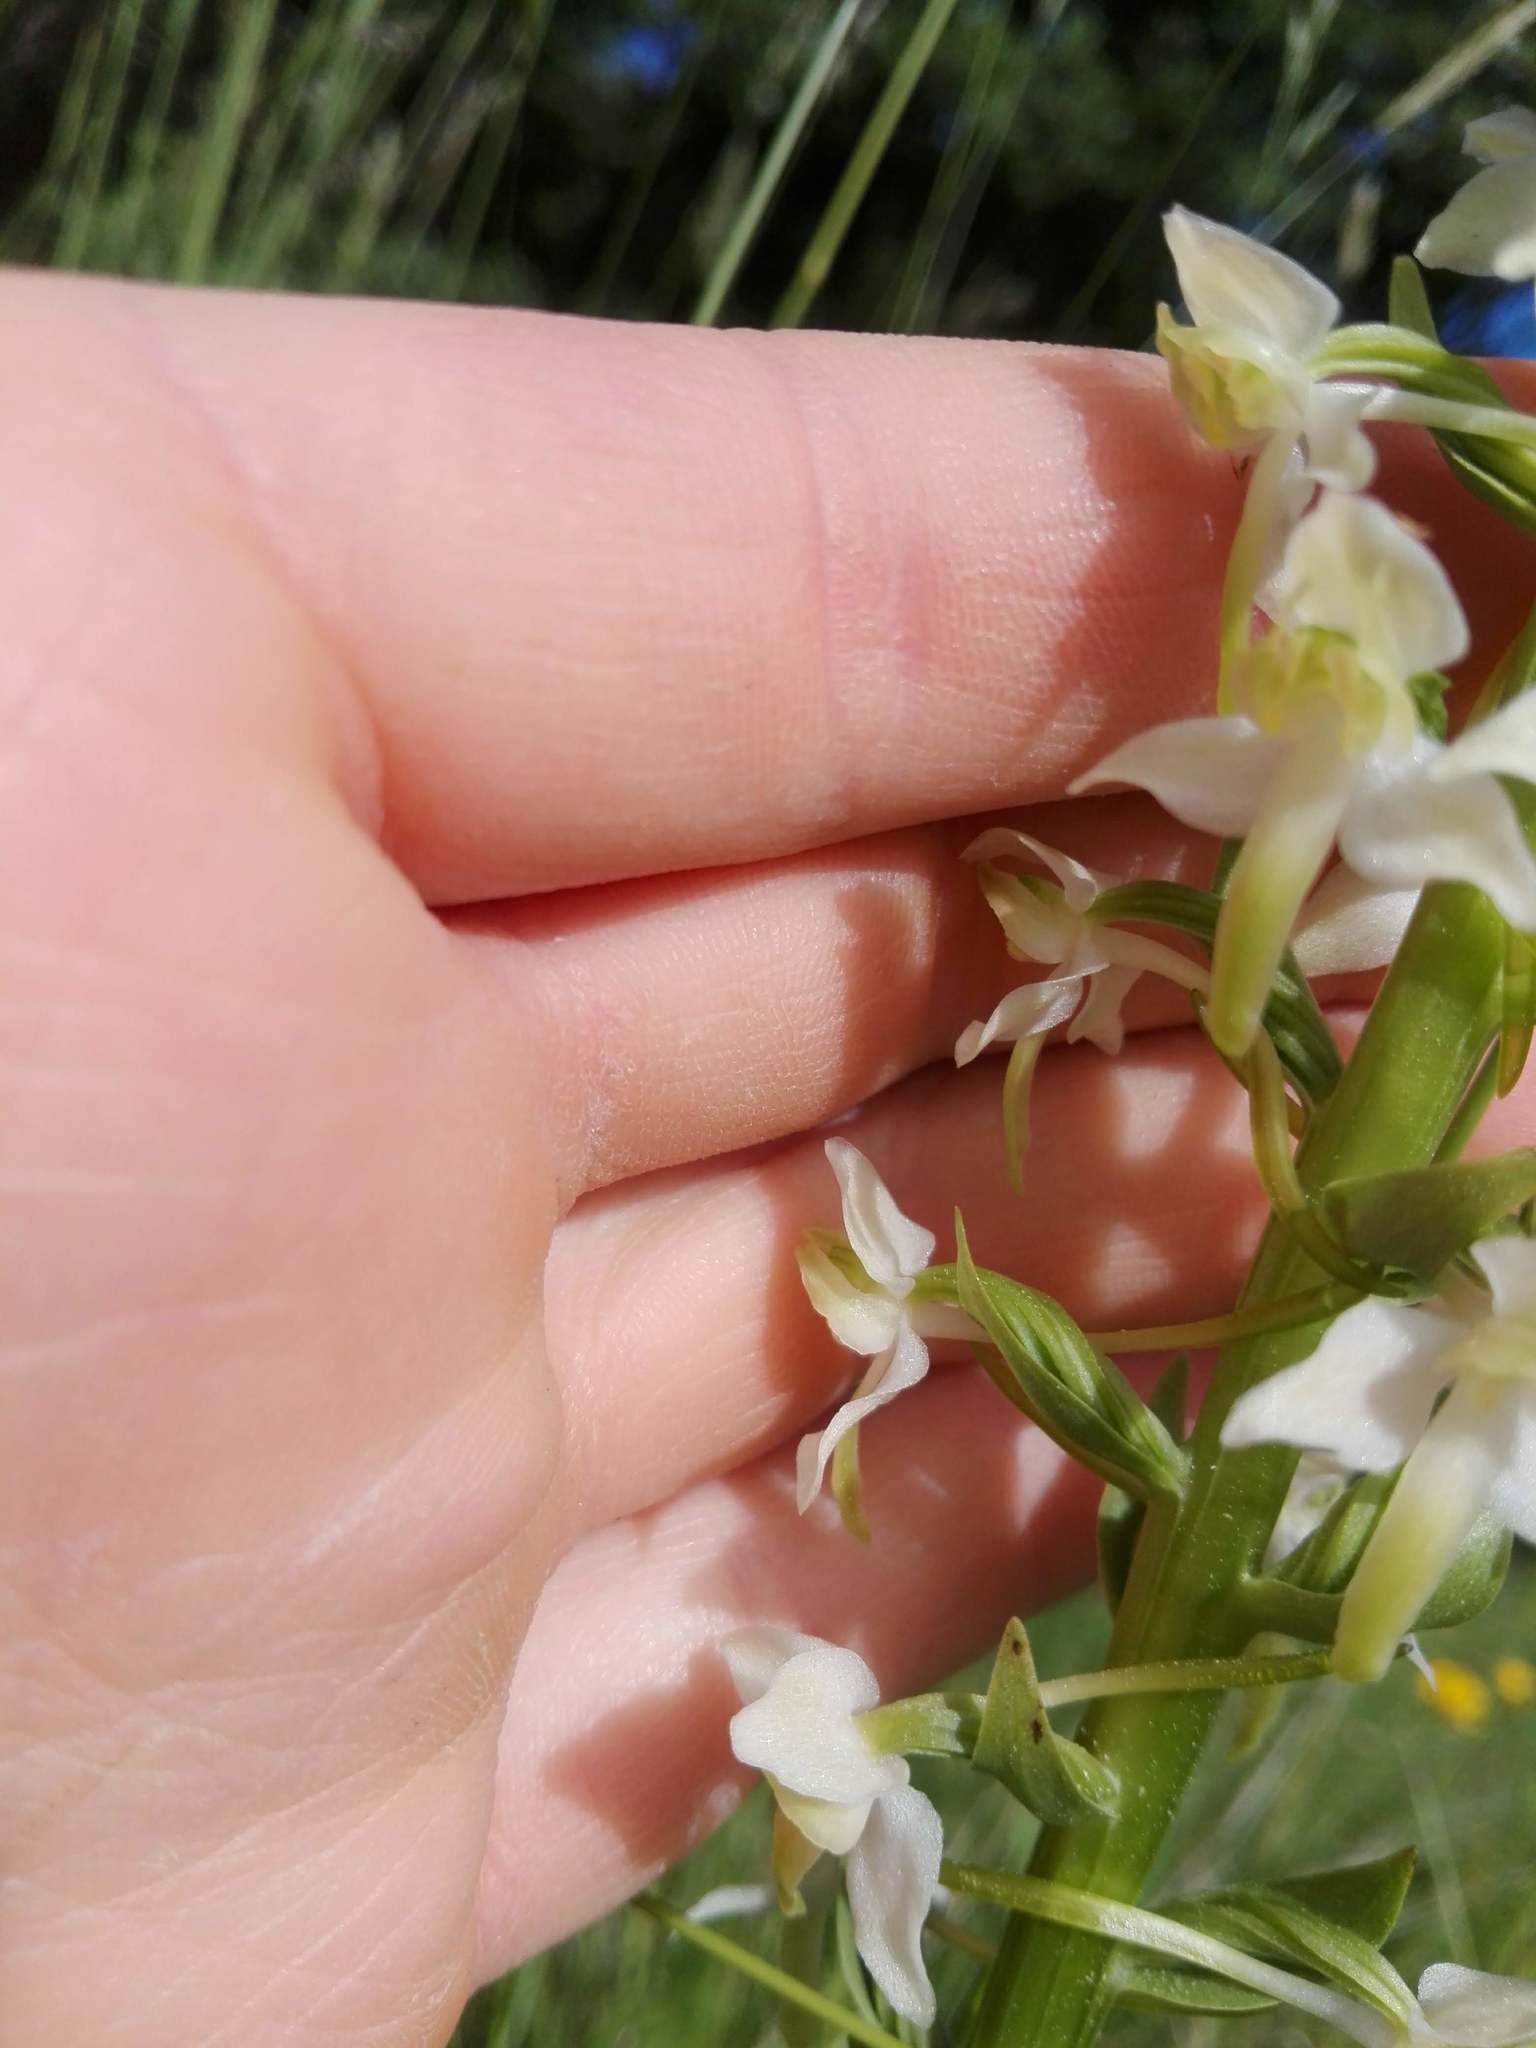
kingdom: Plantae
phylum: Tracheophyta
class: Liliopsida
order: Asparagales
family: Orchidaceae
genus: Platanthera
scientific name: Platanthera chlorantha
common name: Greater butterfly-orchid
